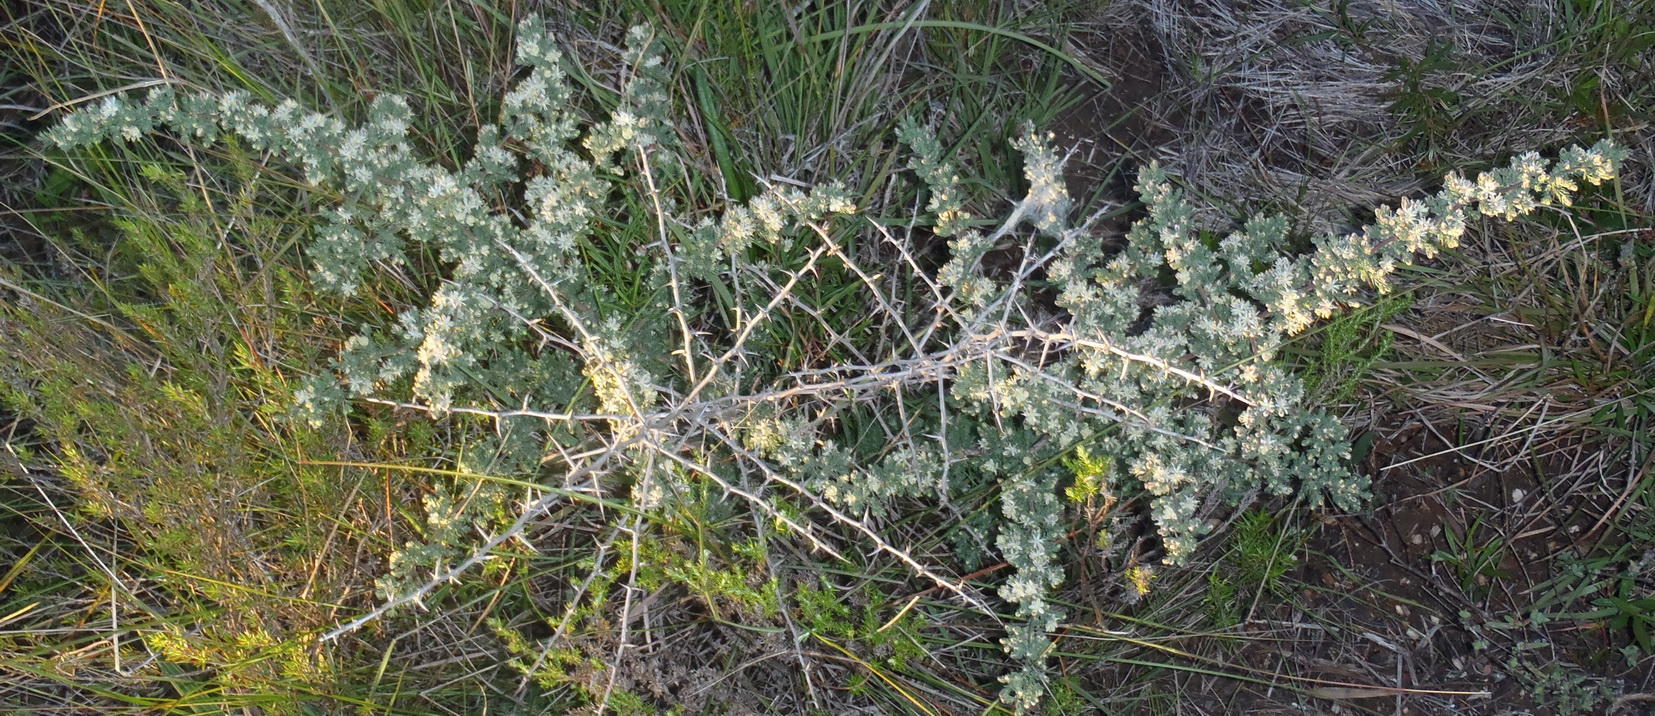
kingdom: Plantae
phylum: Tracheophyta
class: Liliopsida
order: Asparagales
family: Asparagaceae
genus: Asparagus
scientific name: Asparagus capensis
